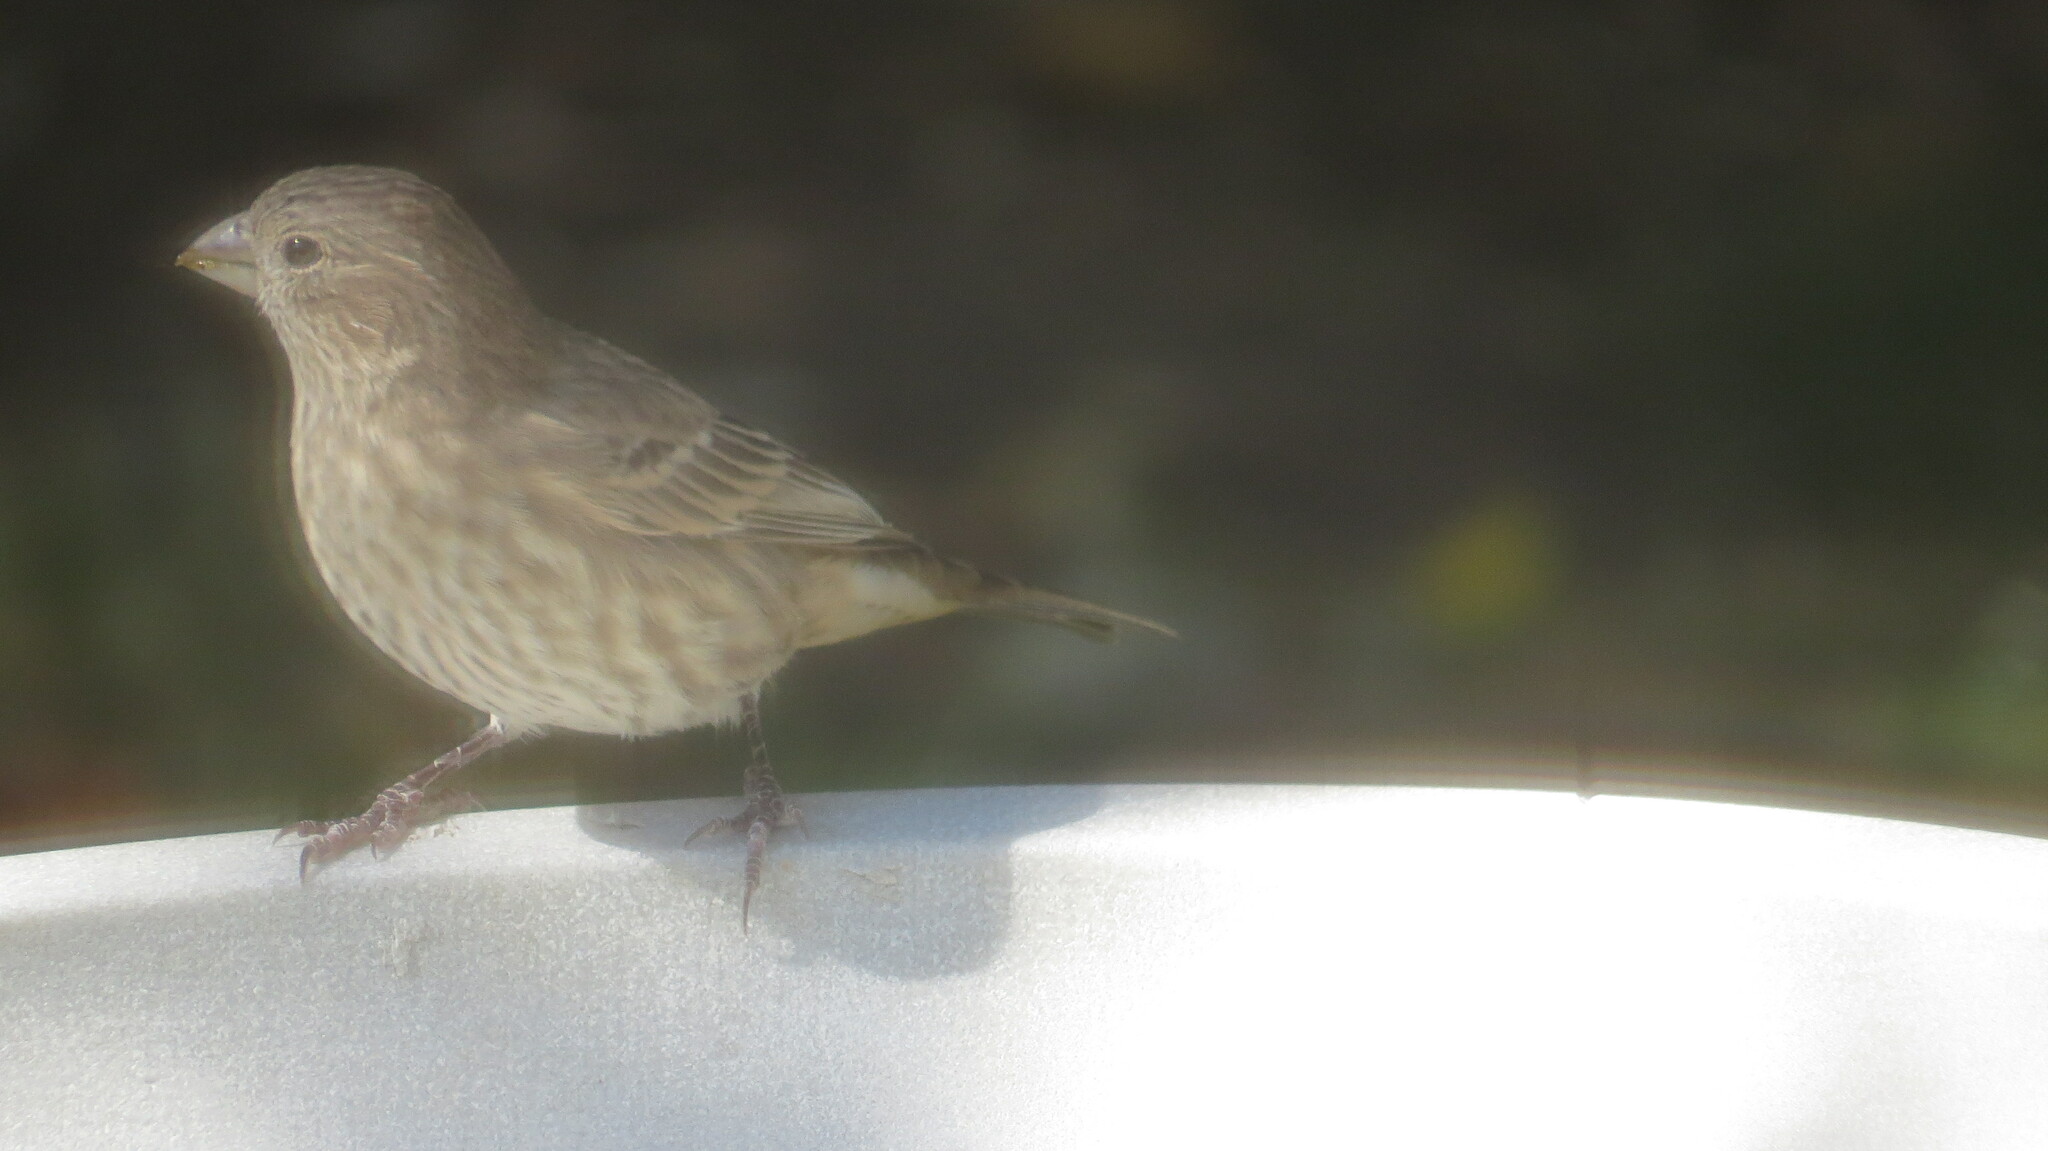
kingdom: Animalia
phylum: Chordata
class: Aves
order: Passeriformes
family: Fringillidae
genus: Haemorhous
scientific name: Haemorhous mexicanus
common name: House finch
